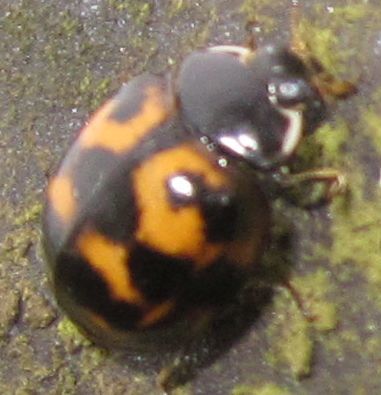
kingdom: Animalia
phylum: Arthropoda
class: Insecta
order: Coleoptera
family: Coccinellidae
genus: Harmonia
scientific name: Harmonia axyridis
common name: Harlequin ladybird
